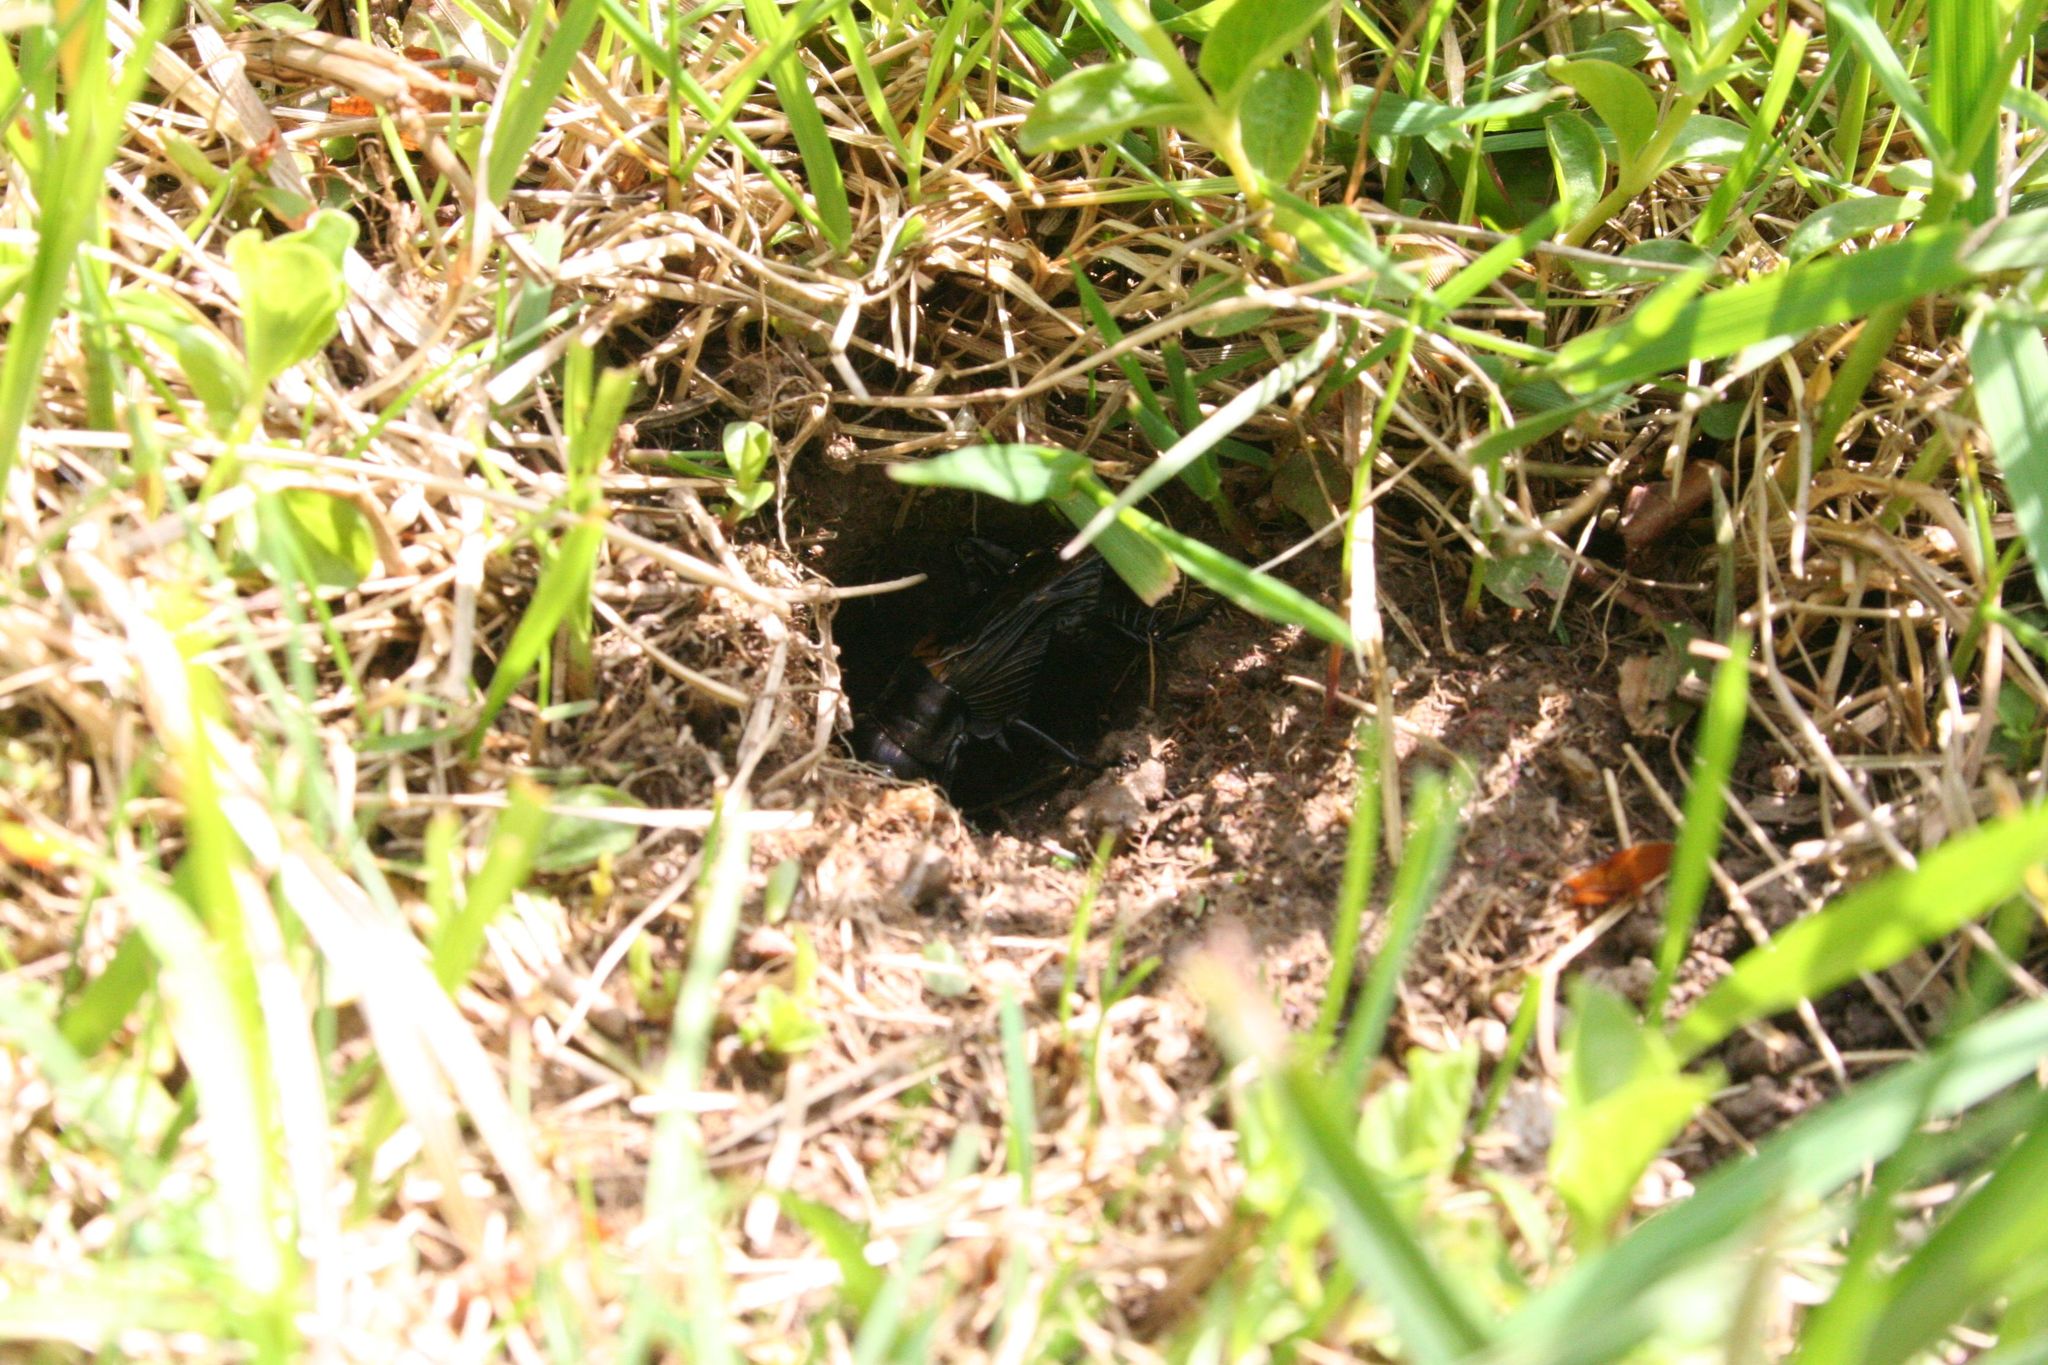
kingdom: Animalia
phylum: Arthropoda
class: Insecta
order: Orthoptera
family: Gryllidae
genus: Gryllus
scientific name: Gryllus campestris
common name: Field cricket
